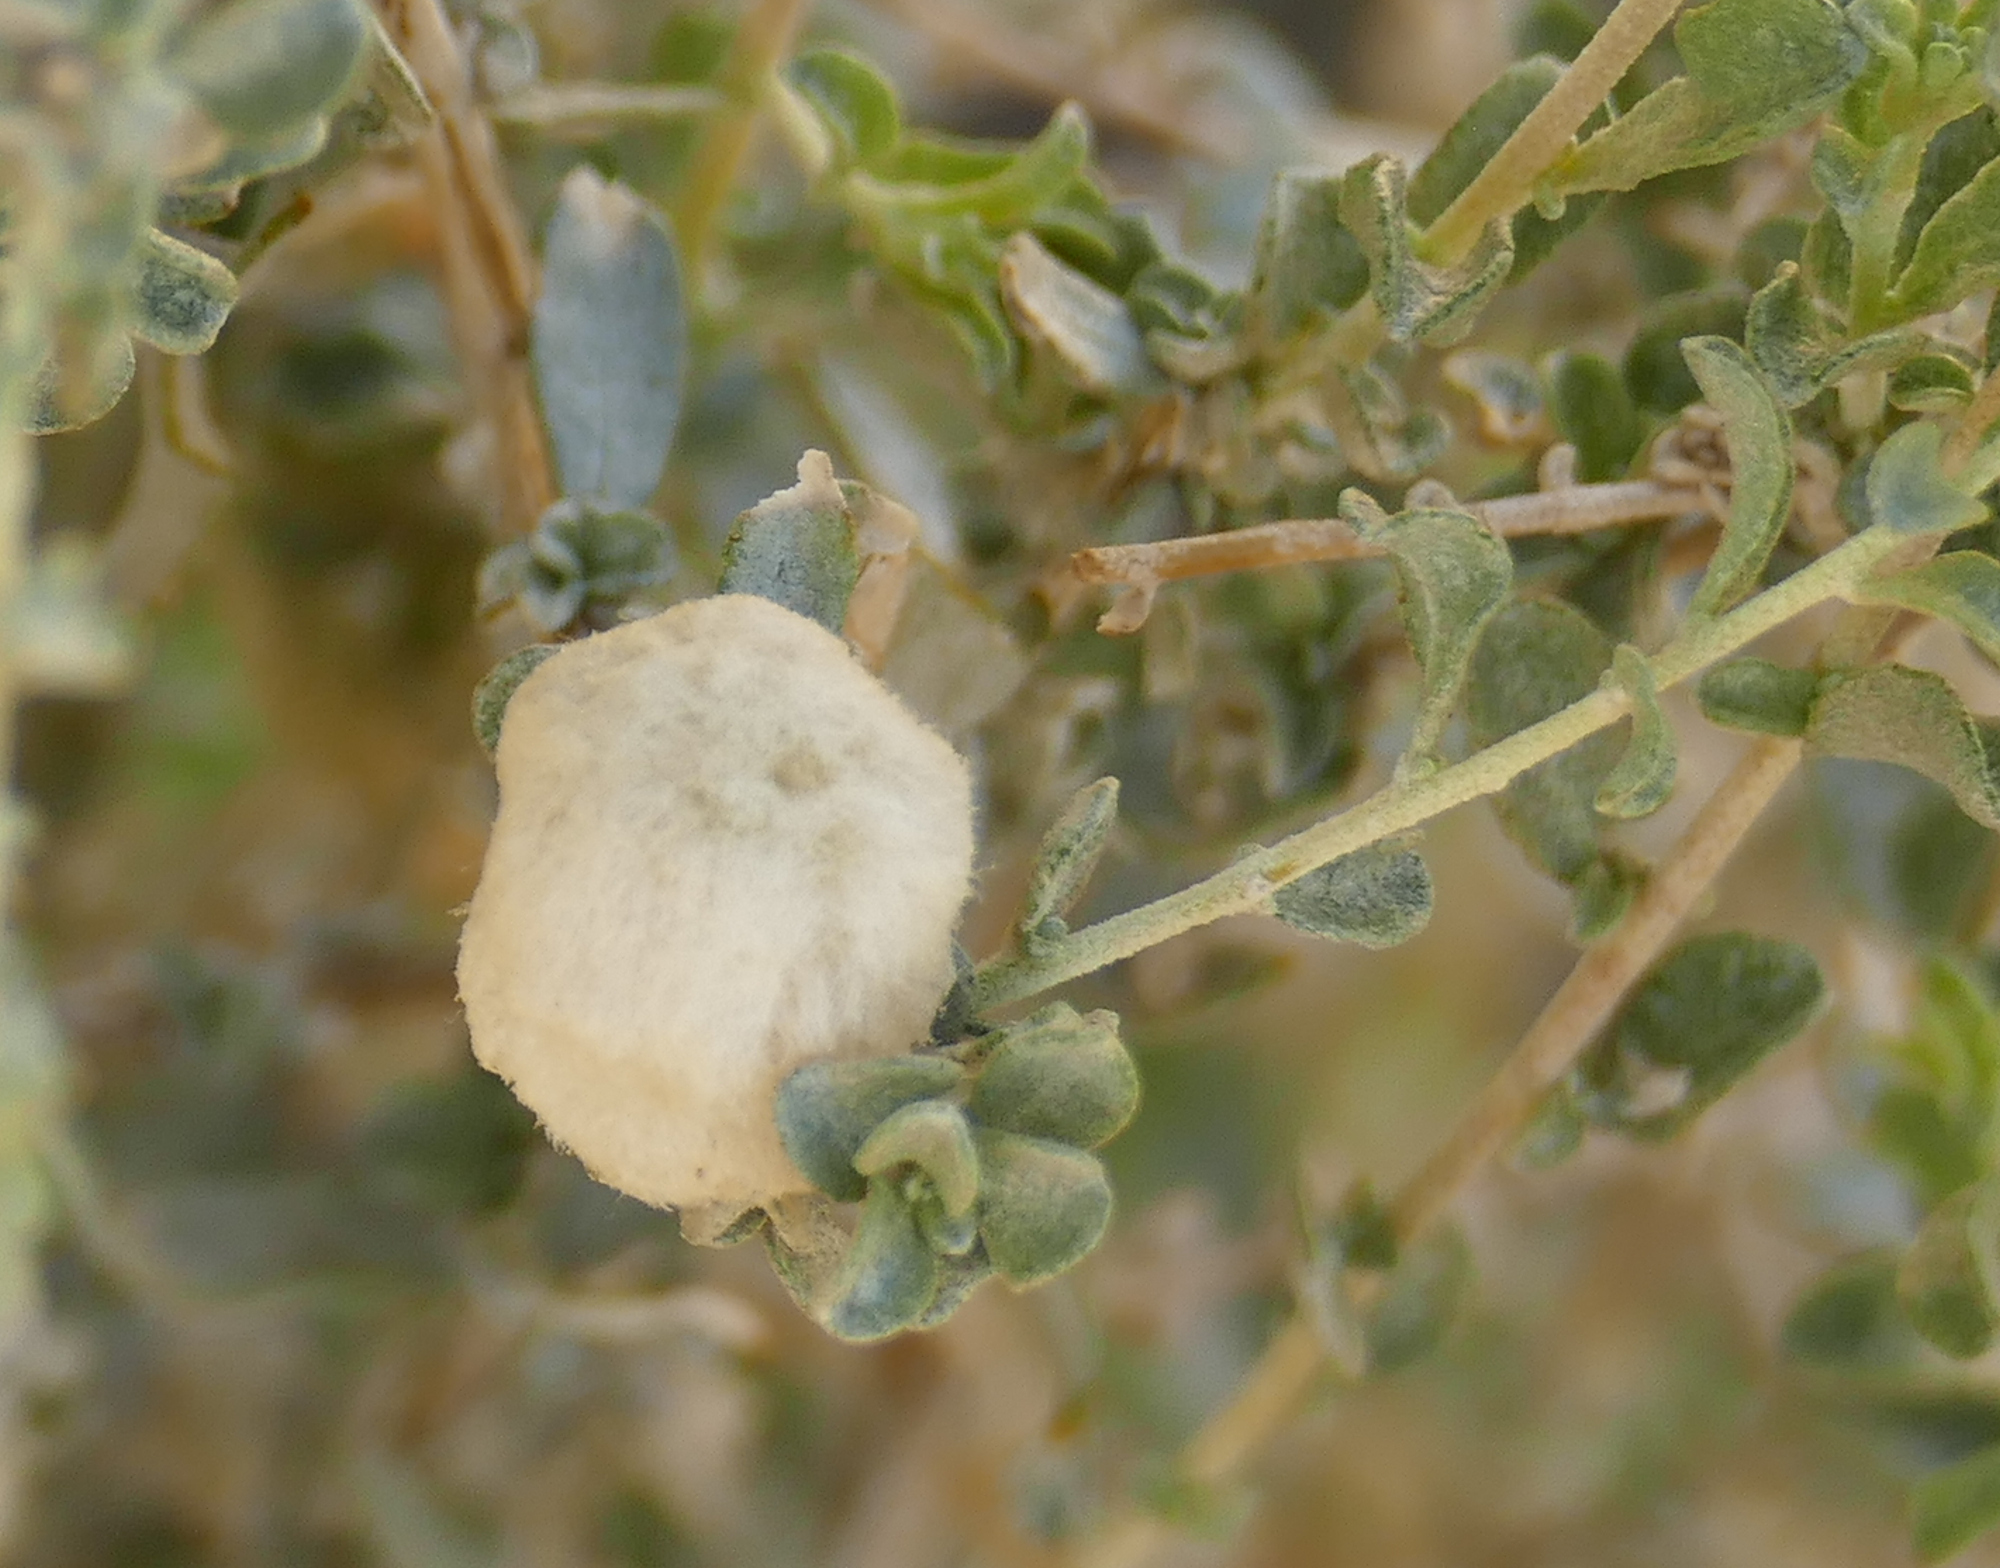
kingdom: Animalia
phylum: Arthropoda
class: Insecta
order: Diptera
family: Cecidomyiidae
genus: Asphondylia
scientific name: Asphondylia floccosa
